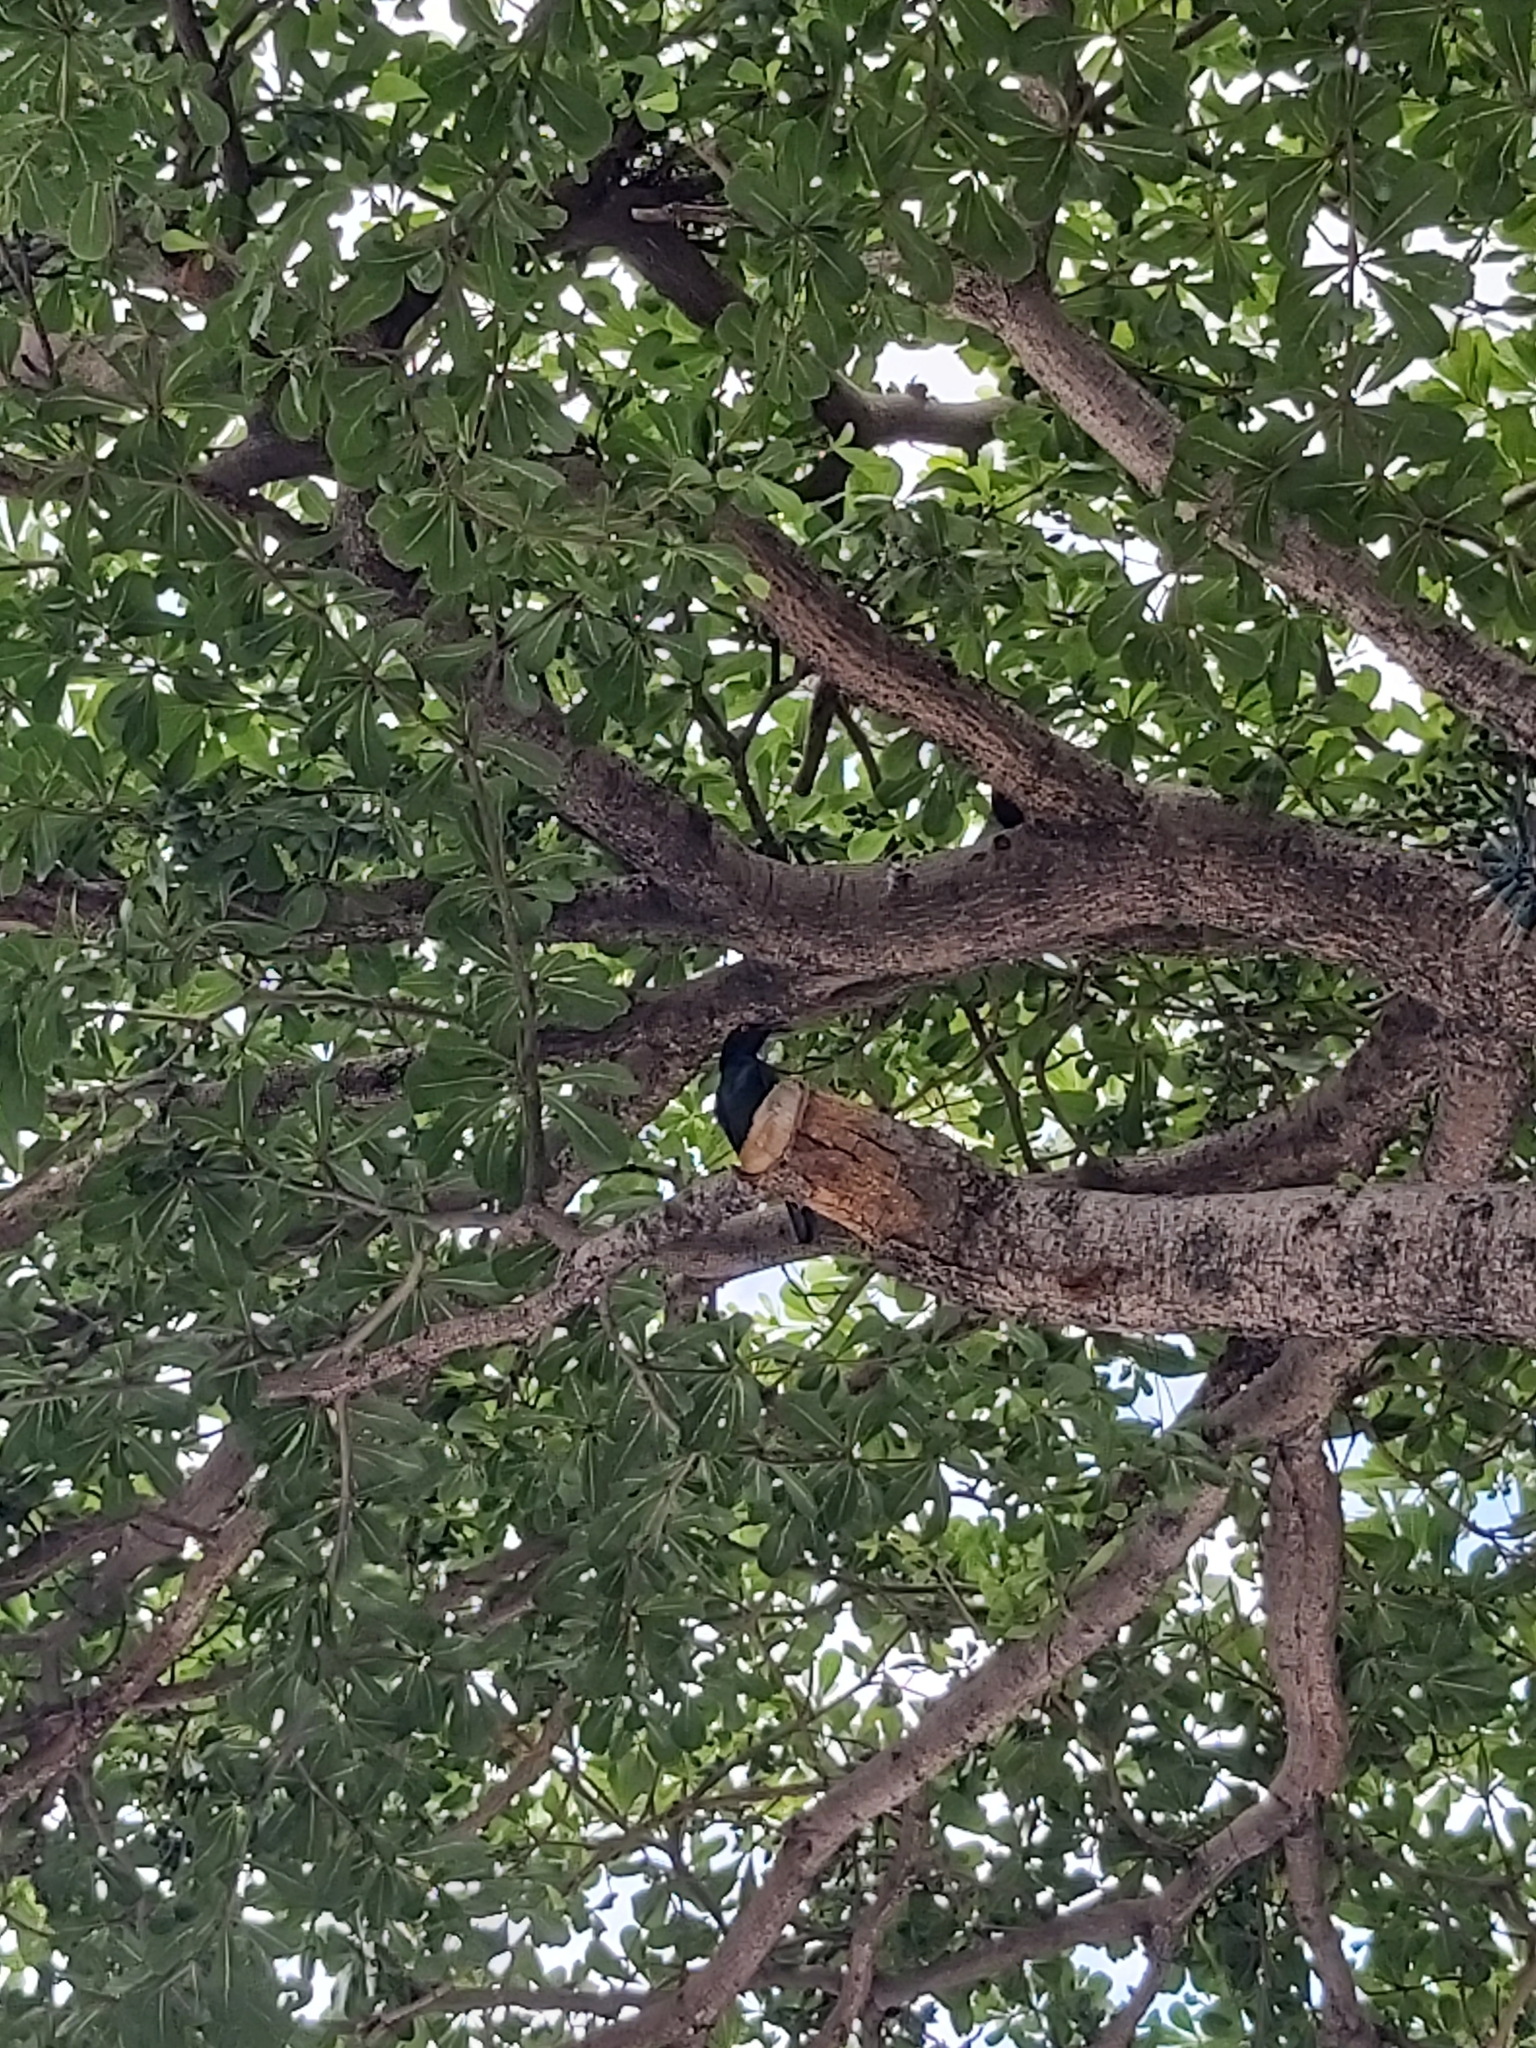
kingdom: Animalia
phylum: Chordata
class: Aves
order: Passeriformes
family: Sturnidae
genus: Aplonis
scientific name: Aplonis panayensis
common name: Asian glossy starling
